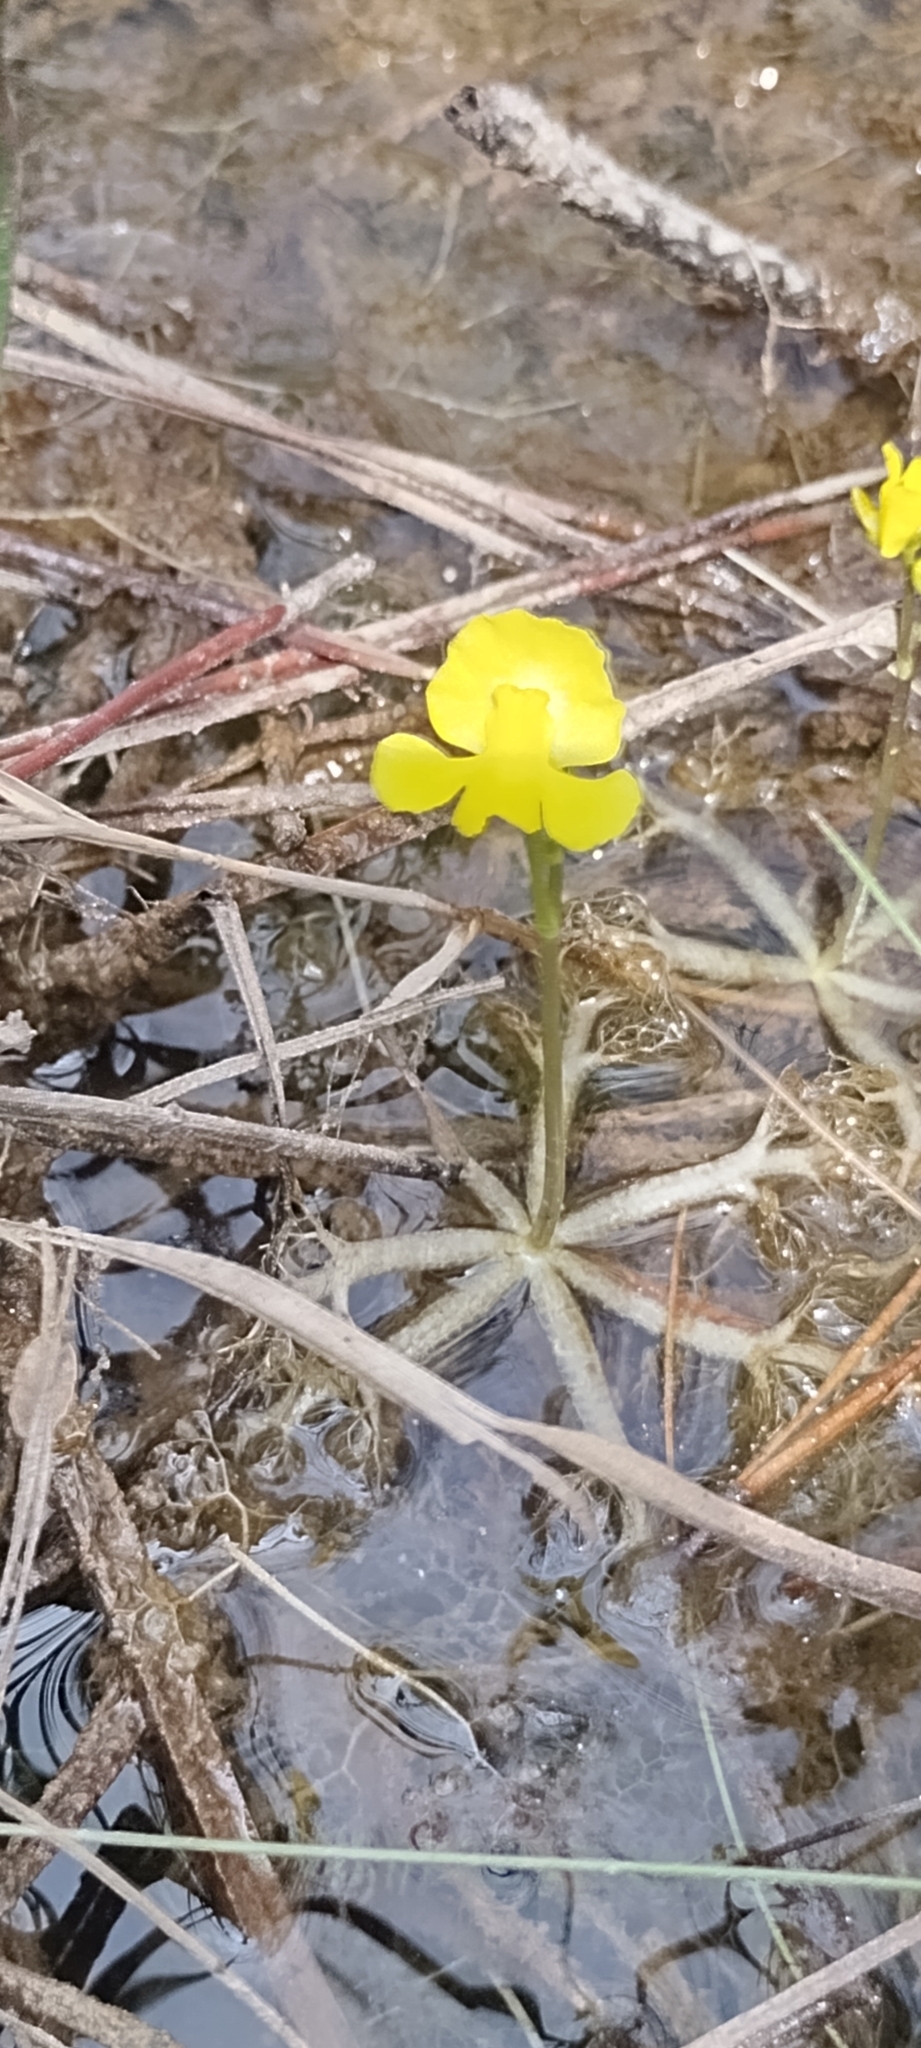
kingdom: Plantae
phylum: Tracheophyta
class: Magnoliopsida
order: Lamiales
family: Lentibulariaceae
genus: Utricularia
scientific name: Utricularia radiata
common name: Floating bladderwort
